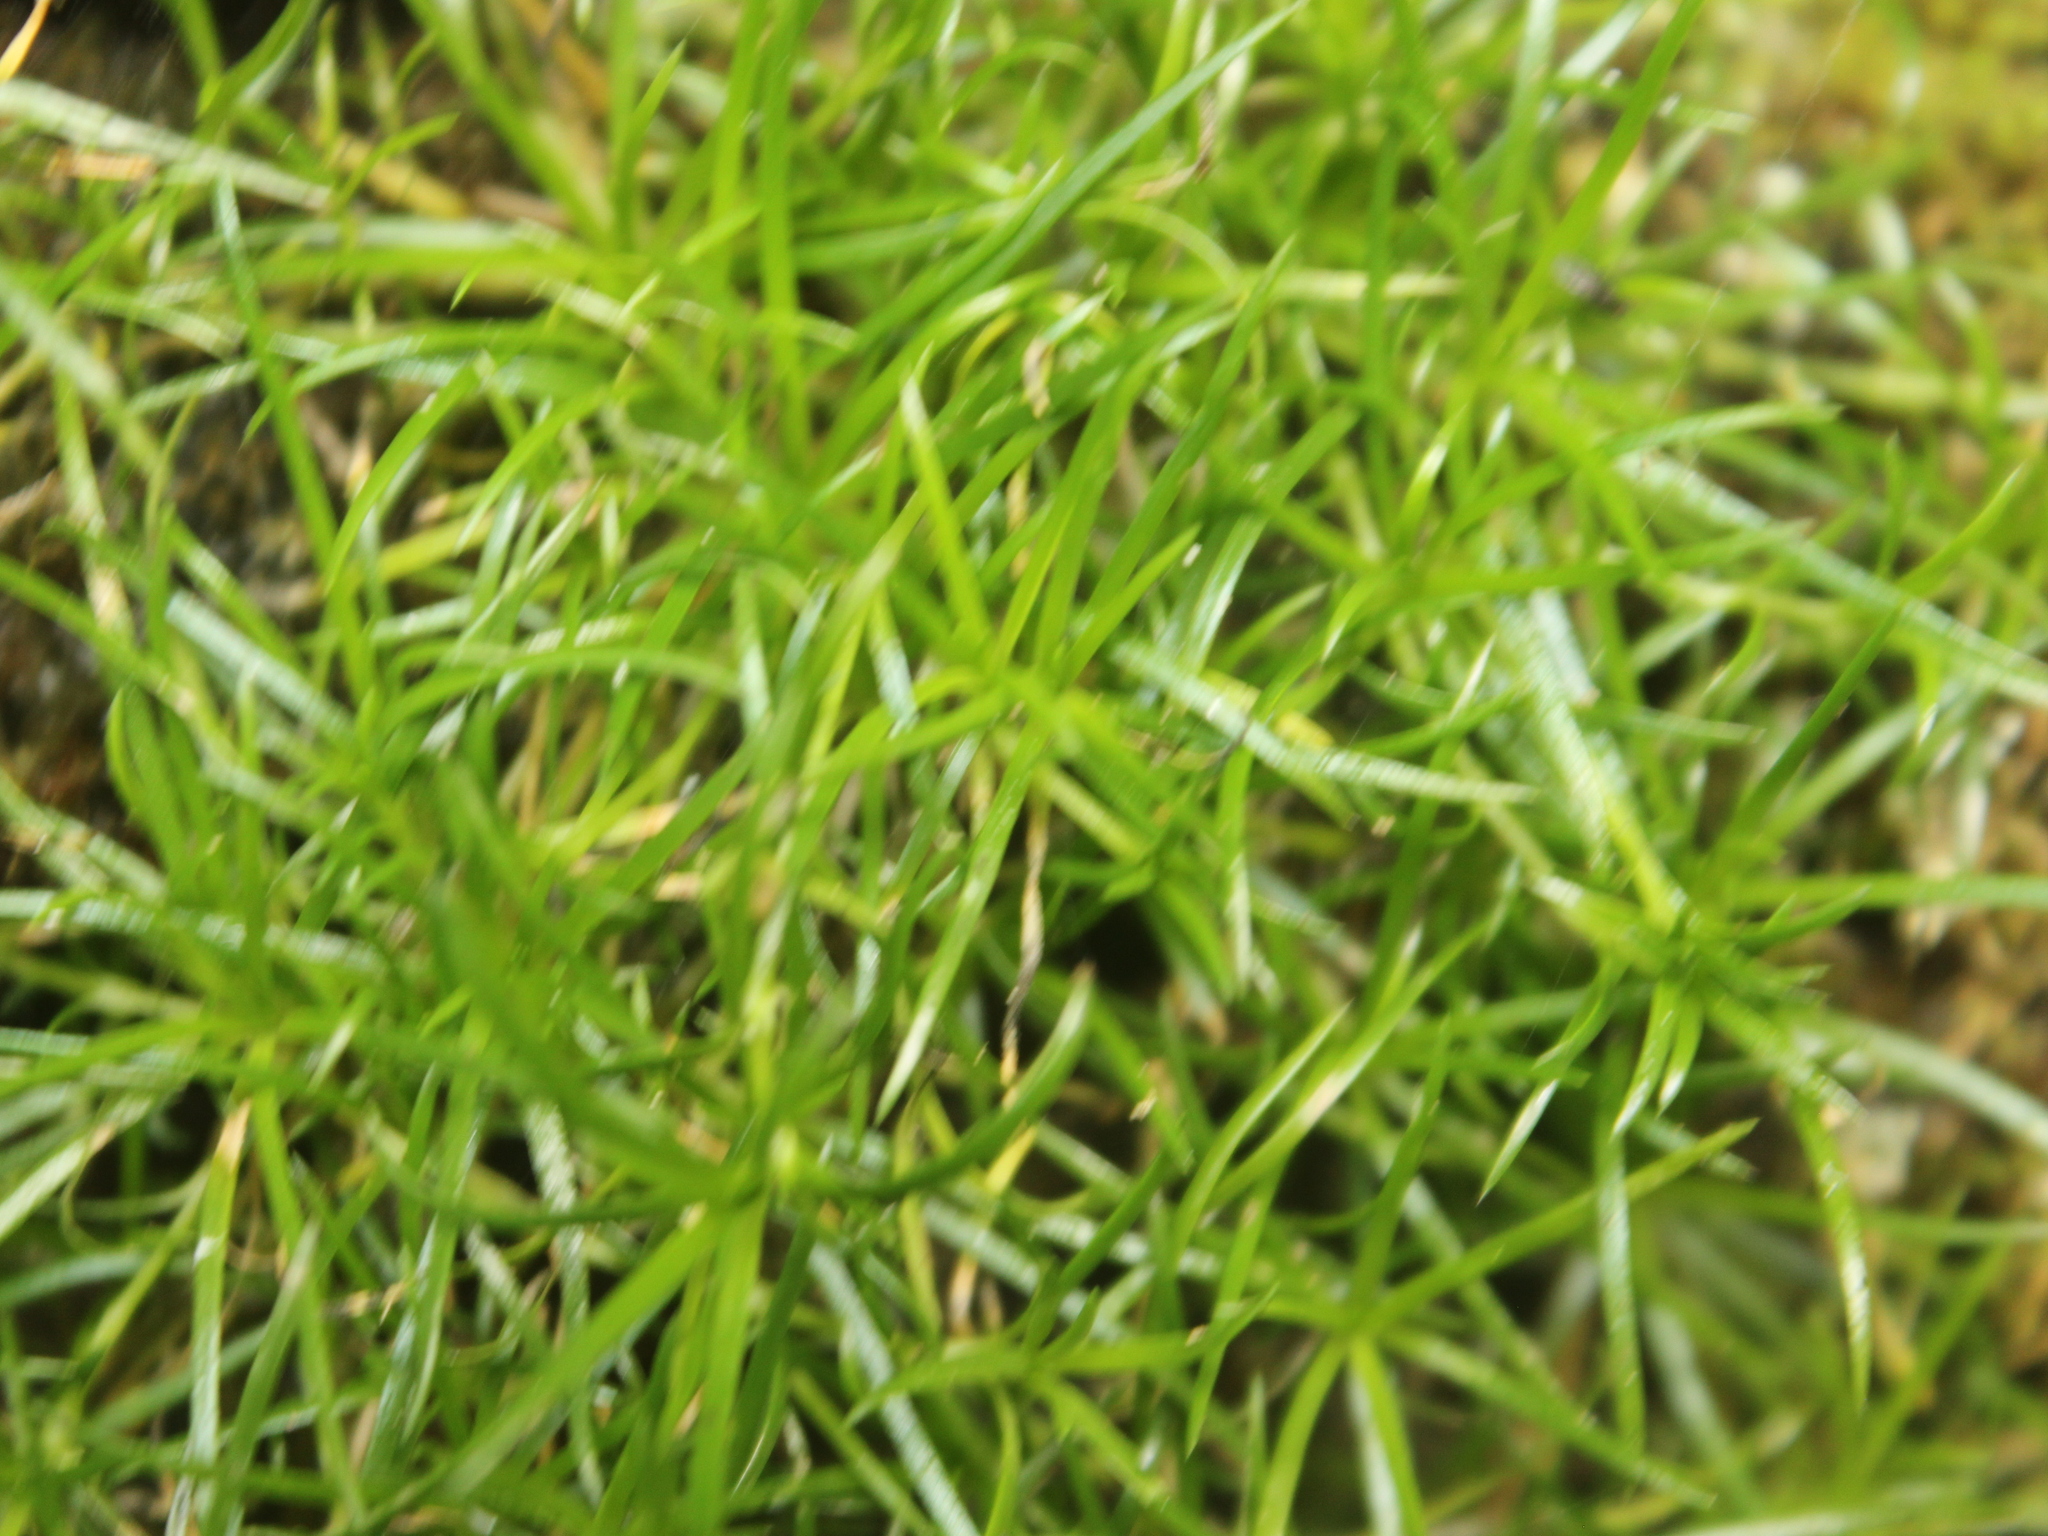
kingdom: Plantae
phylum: Tracheophyta
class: Magnoliopsida
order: Caryophyllales
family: Caryophyllaceae
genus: Sagina
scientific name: Sagina procumbens
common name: Procumbent pearlwort
